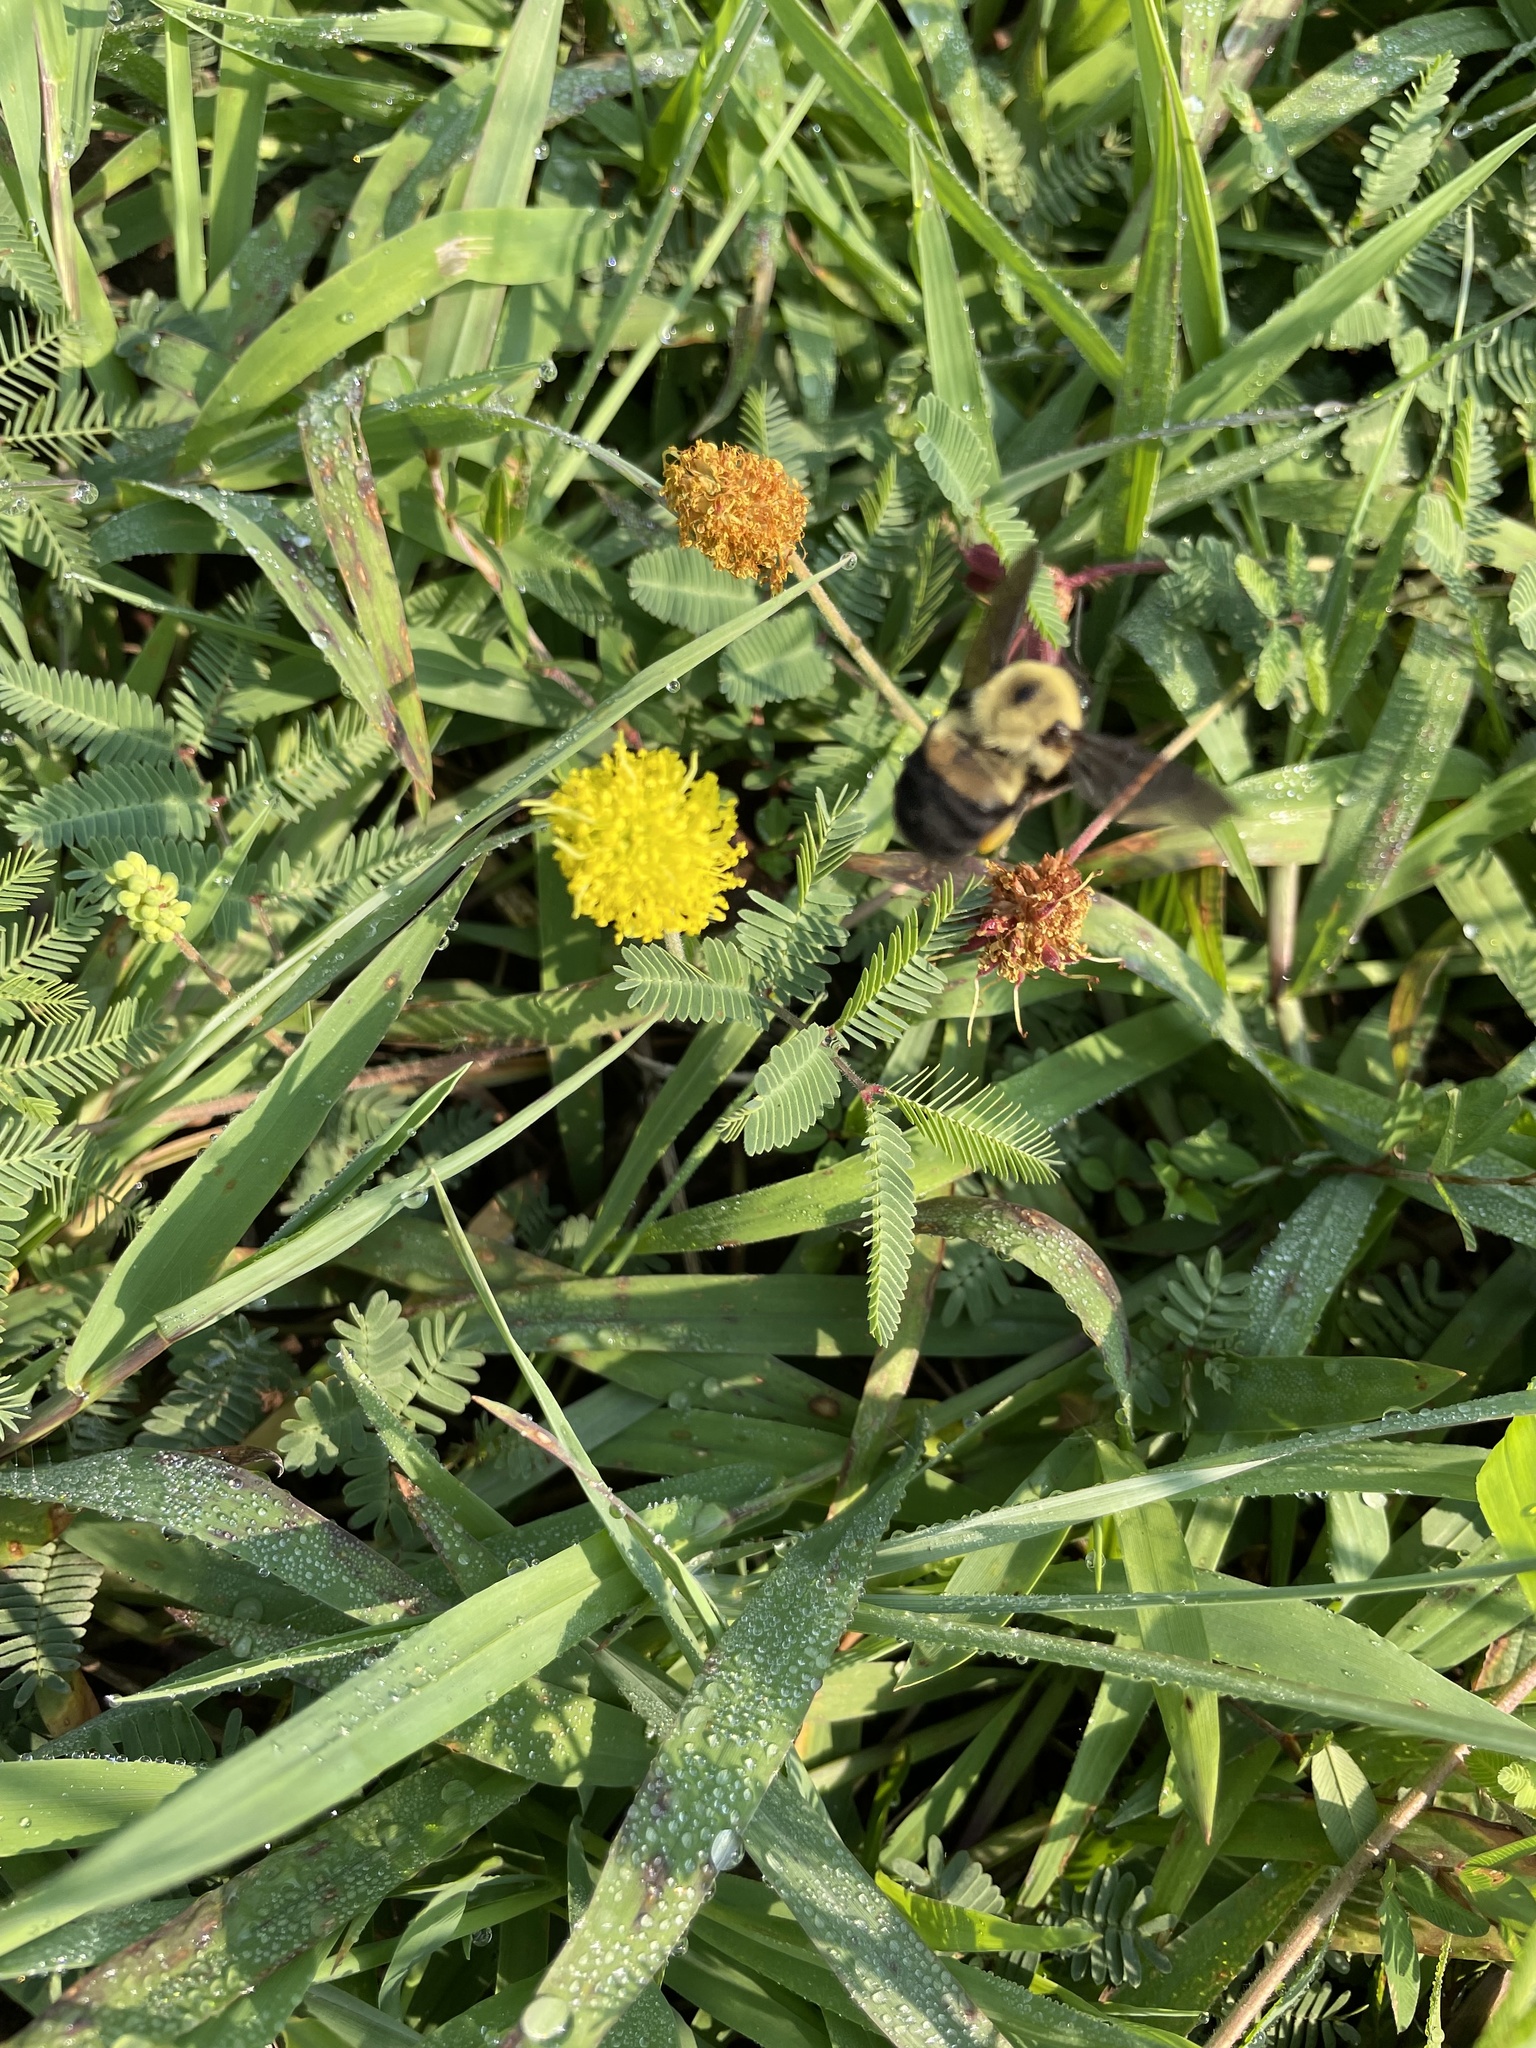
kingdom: Animalia
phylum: Arthropoda
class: Insecta
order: Hymenoptera
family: Apidae
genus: Bombus
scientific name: Bombus griseocollis
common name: Brown-belted bumble bee
